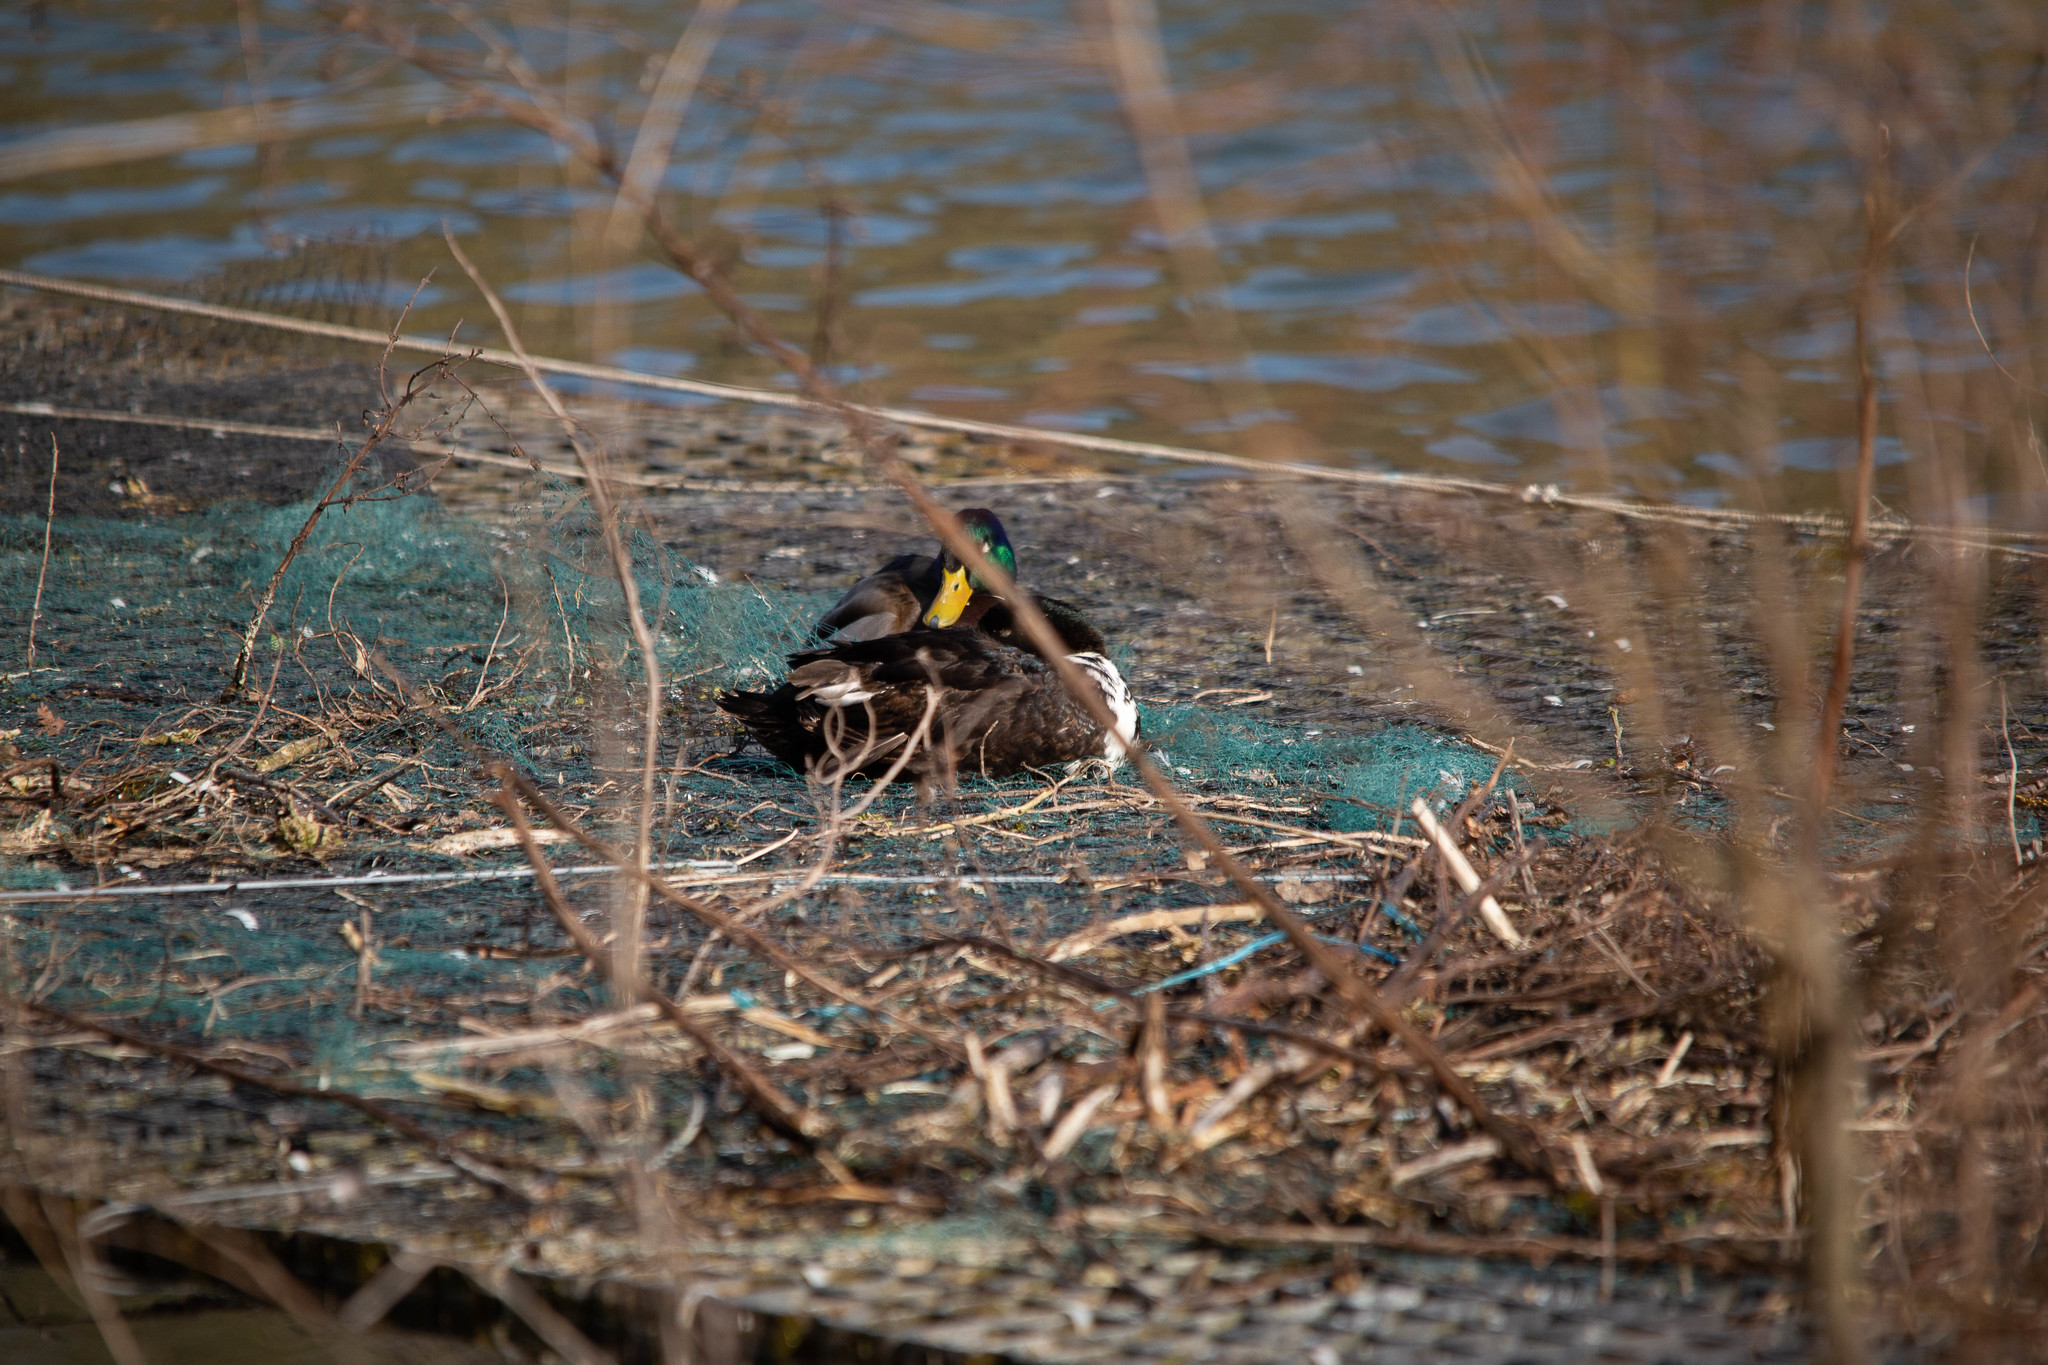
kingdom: Animalia
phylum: Chordata
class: Aves
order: Anseriformes
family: Anatidae
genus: Anas
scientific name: Anas platyrhynchos
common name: Mallard
